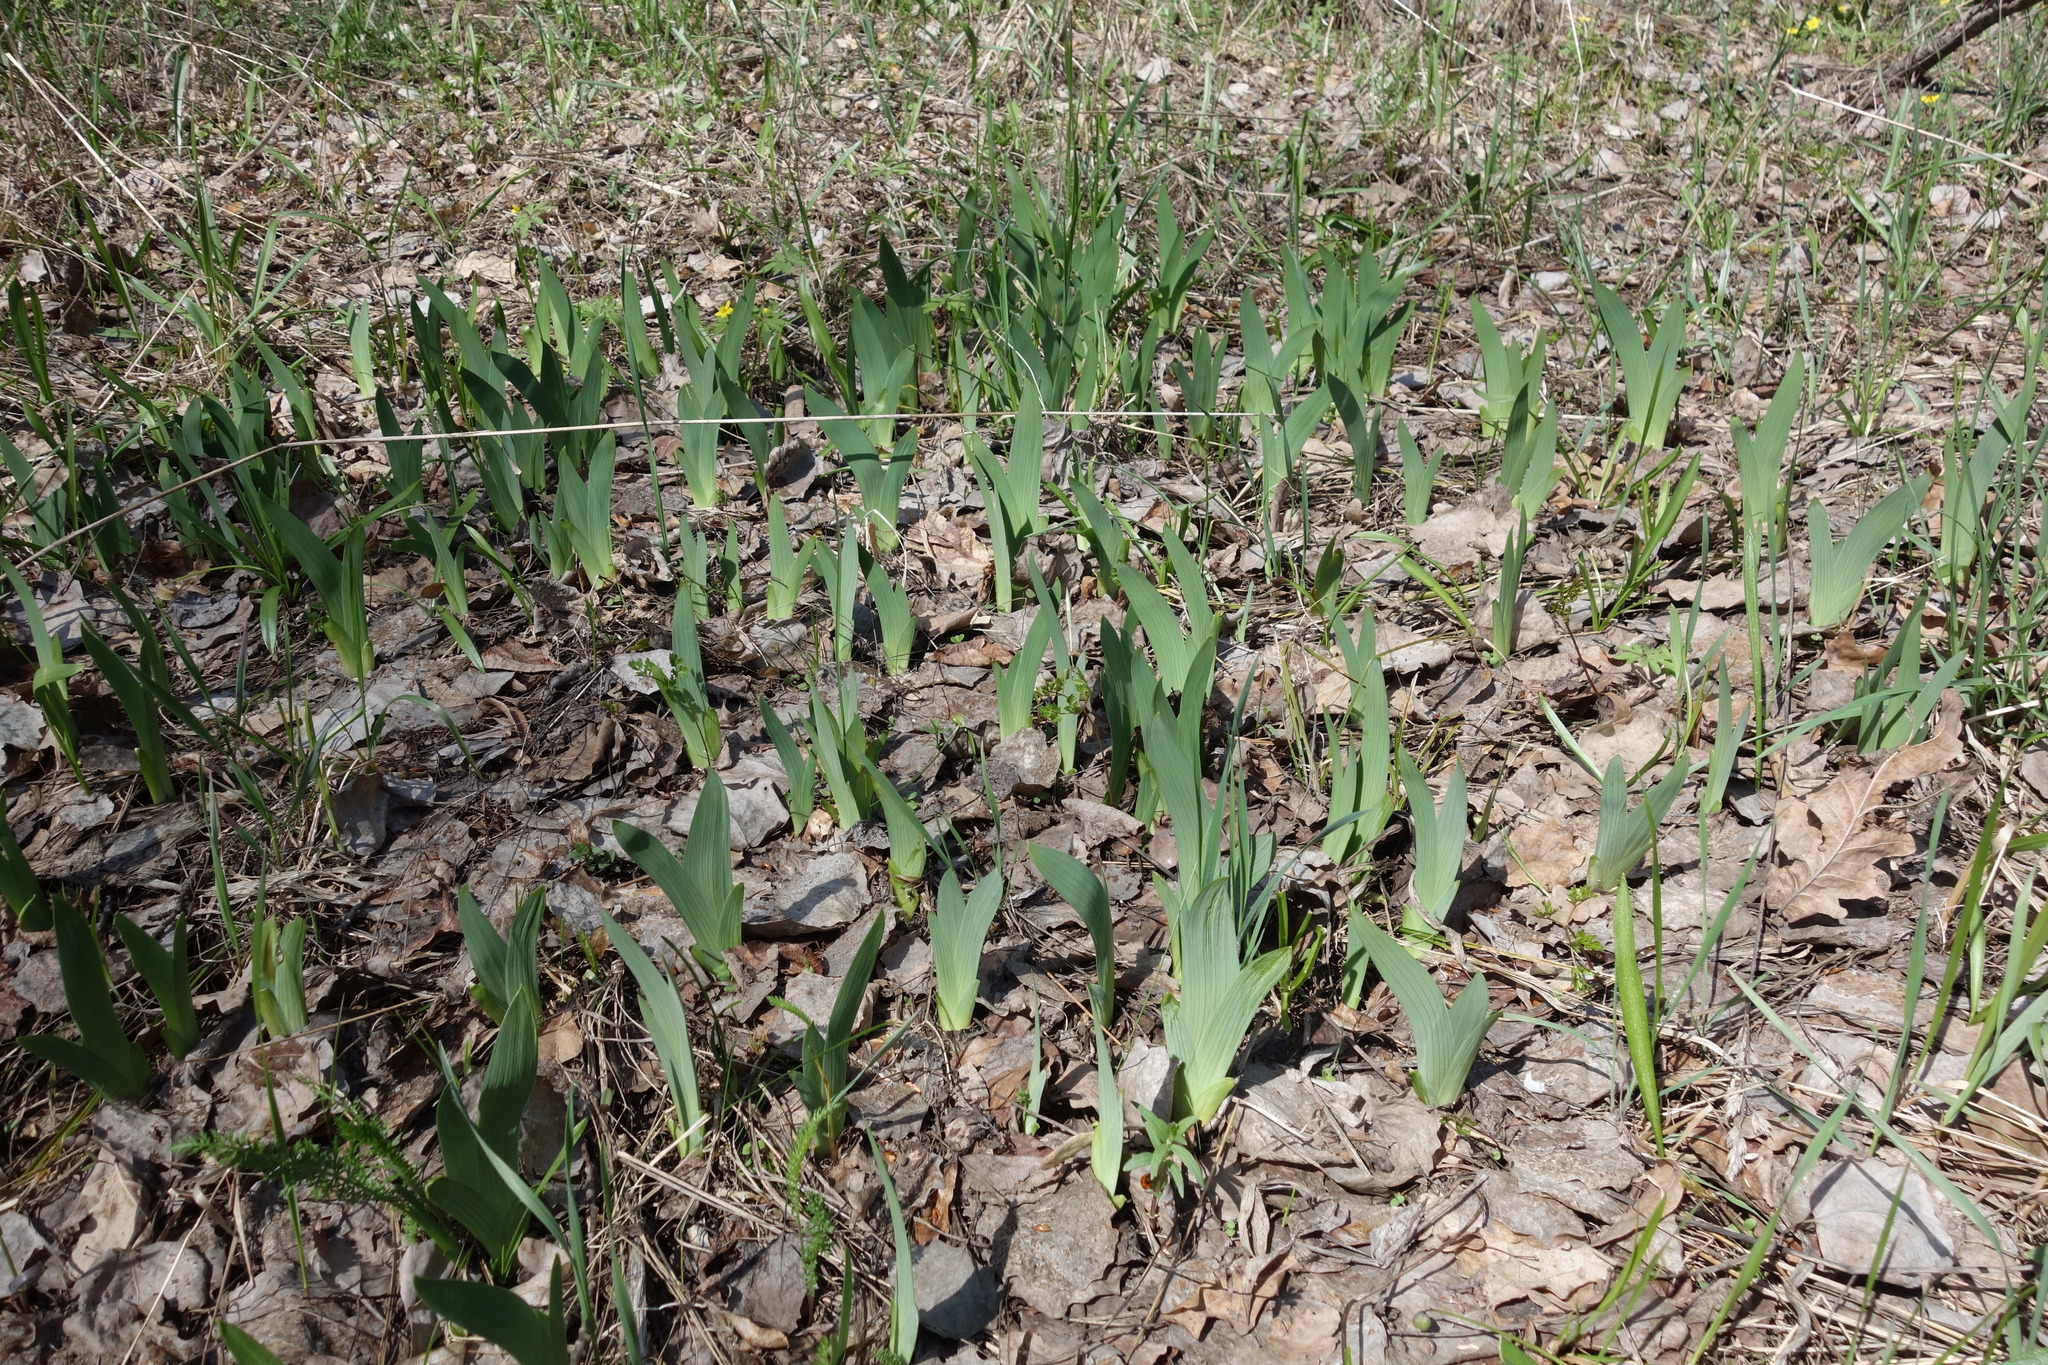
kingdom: Plantae
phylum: Tracheophyta
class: Liliopsida
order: Asparagales
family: Iridaceae
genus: Iris
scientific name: Iris aphylla
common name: Stool iris
